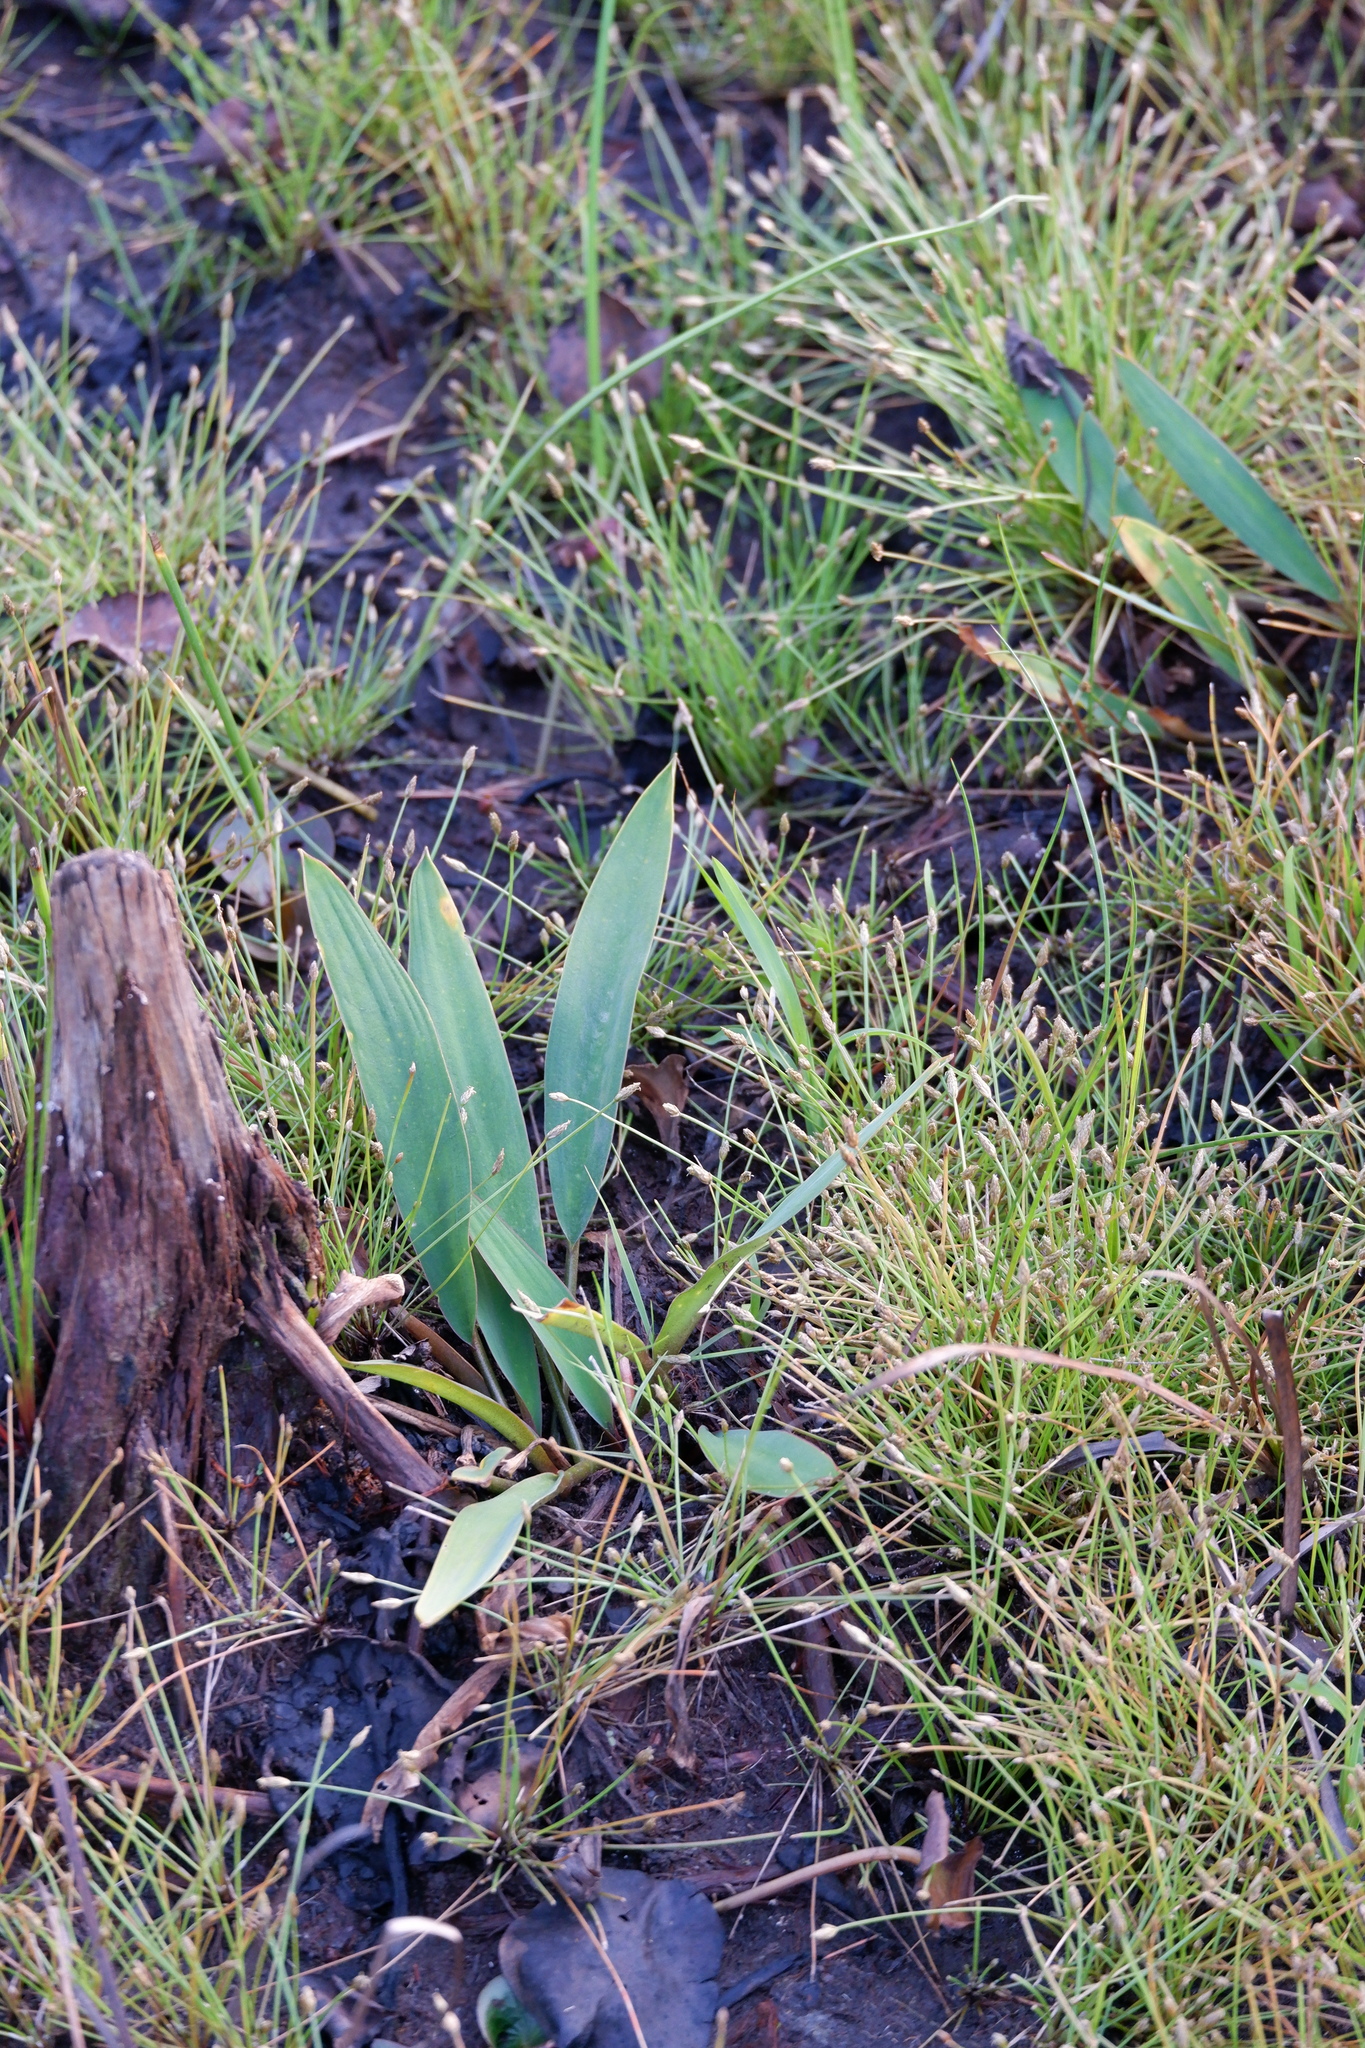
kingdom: Plantae
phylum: Tracheophyta
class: Liliopsida
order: Alismatales
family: Araceae
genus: Orontium
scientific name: Orontium aquaticum
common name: Golden-club
